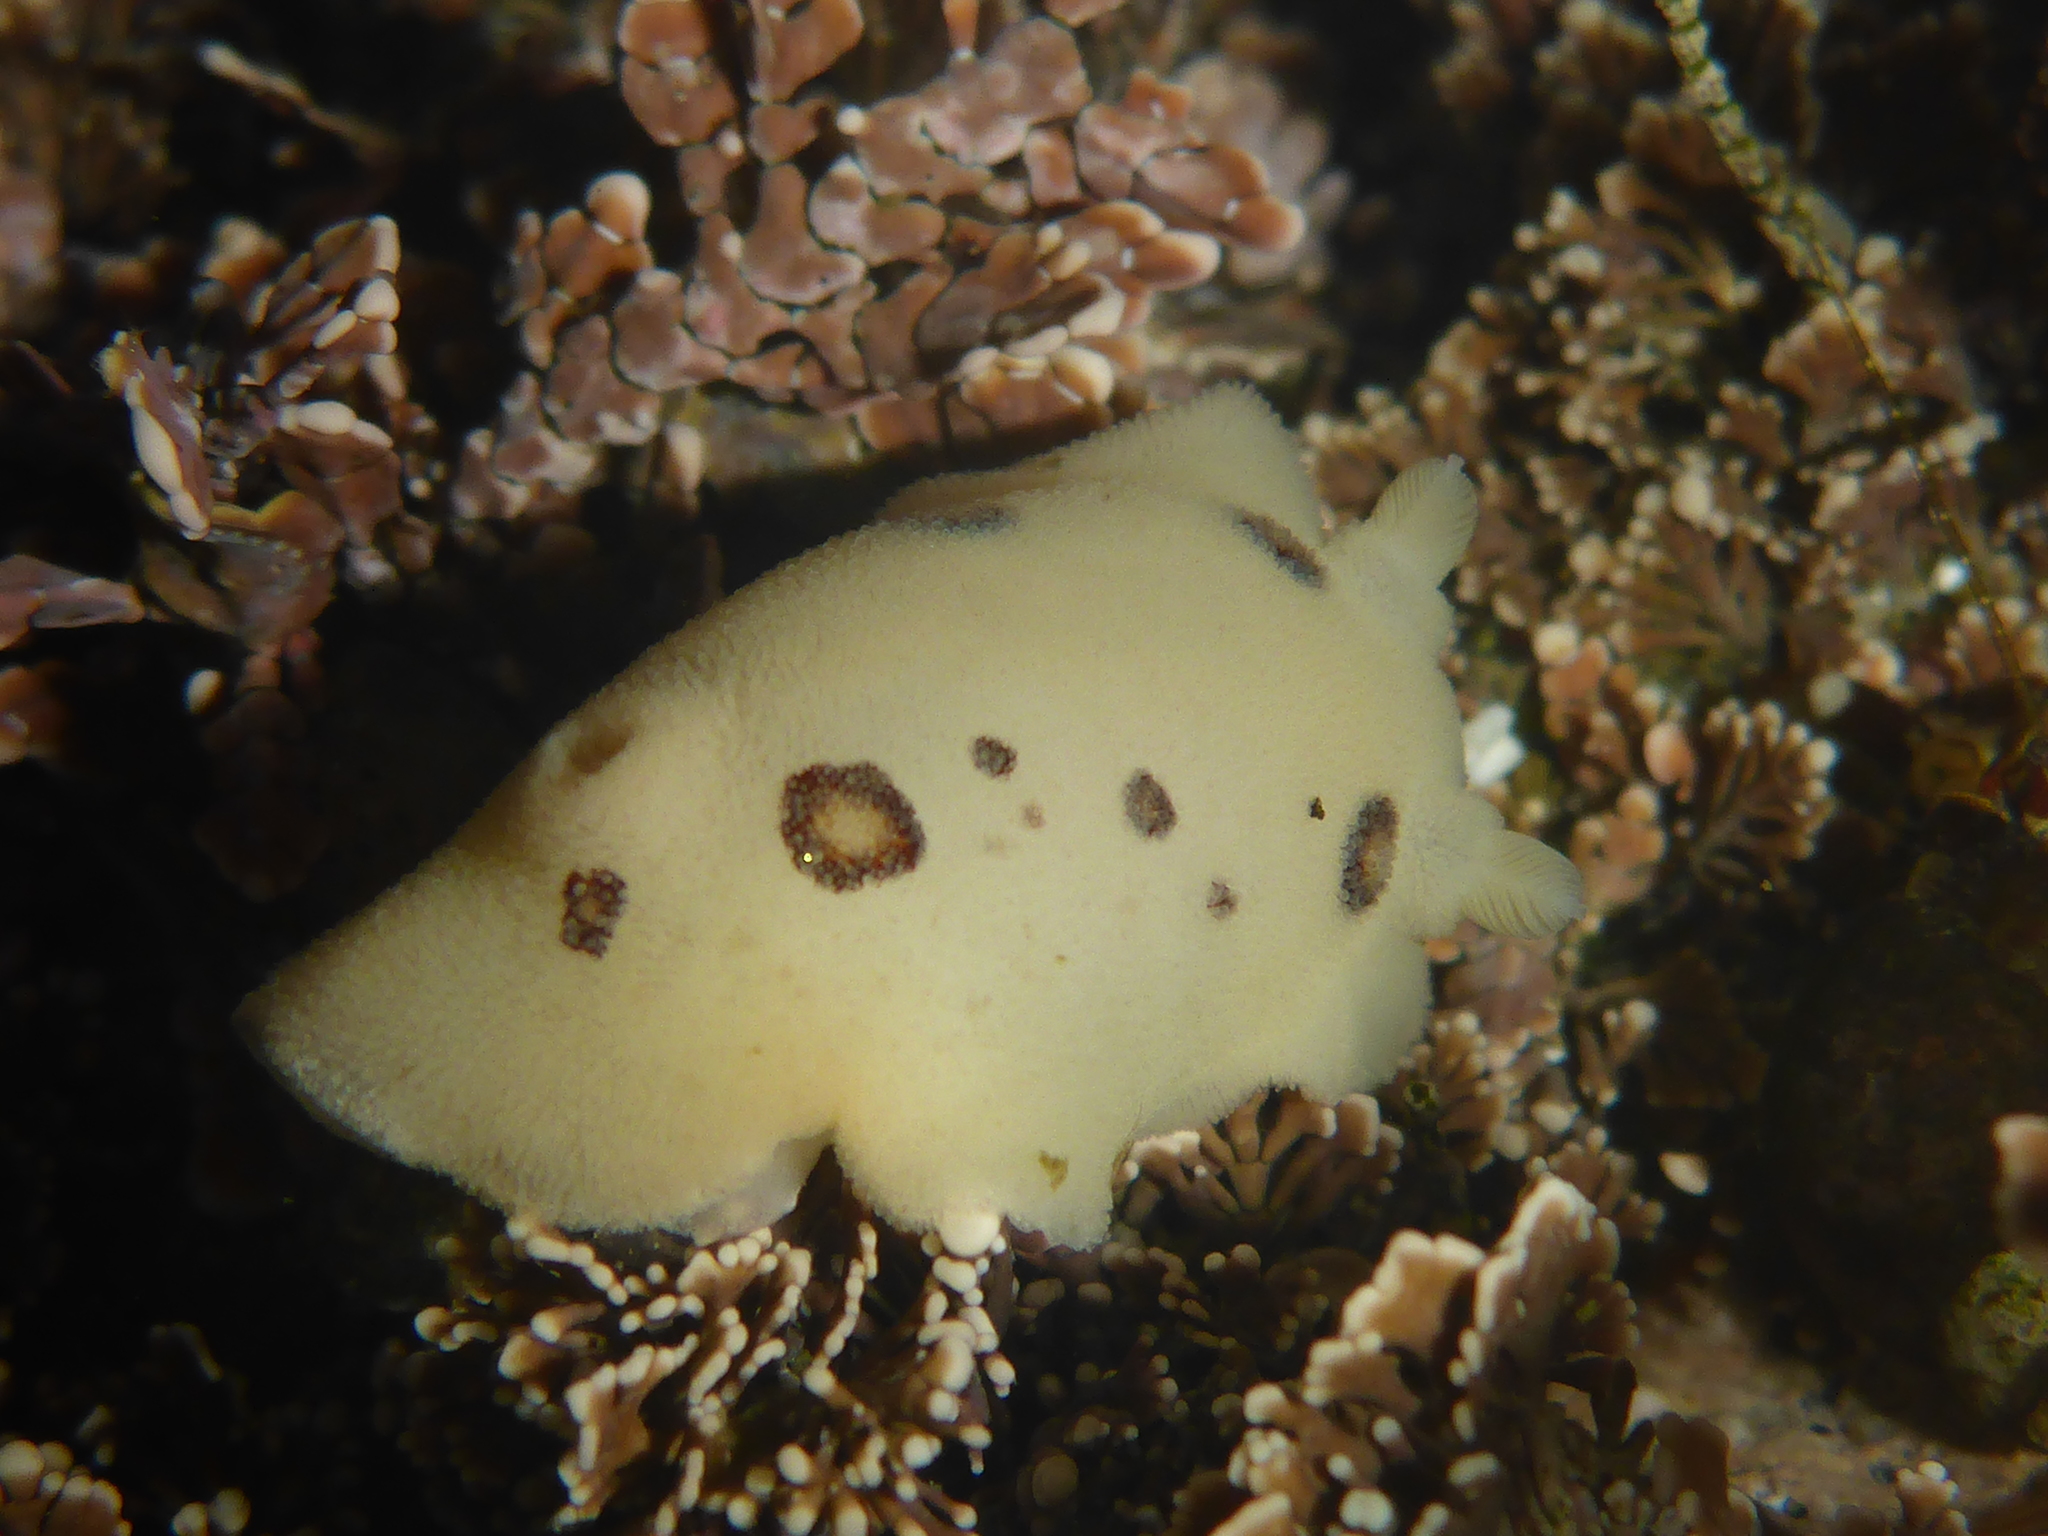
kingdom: Animalia
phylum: Mollusca
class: Gastropoda
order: Nudibranchia
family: Discodorididae
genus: Diaulula
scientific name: Diaulula sandiegensis
